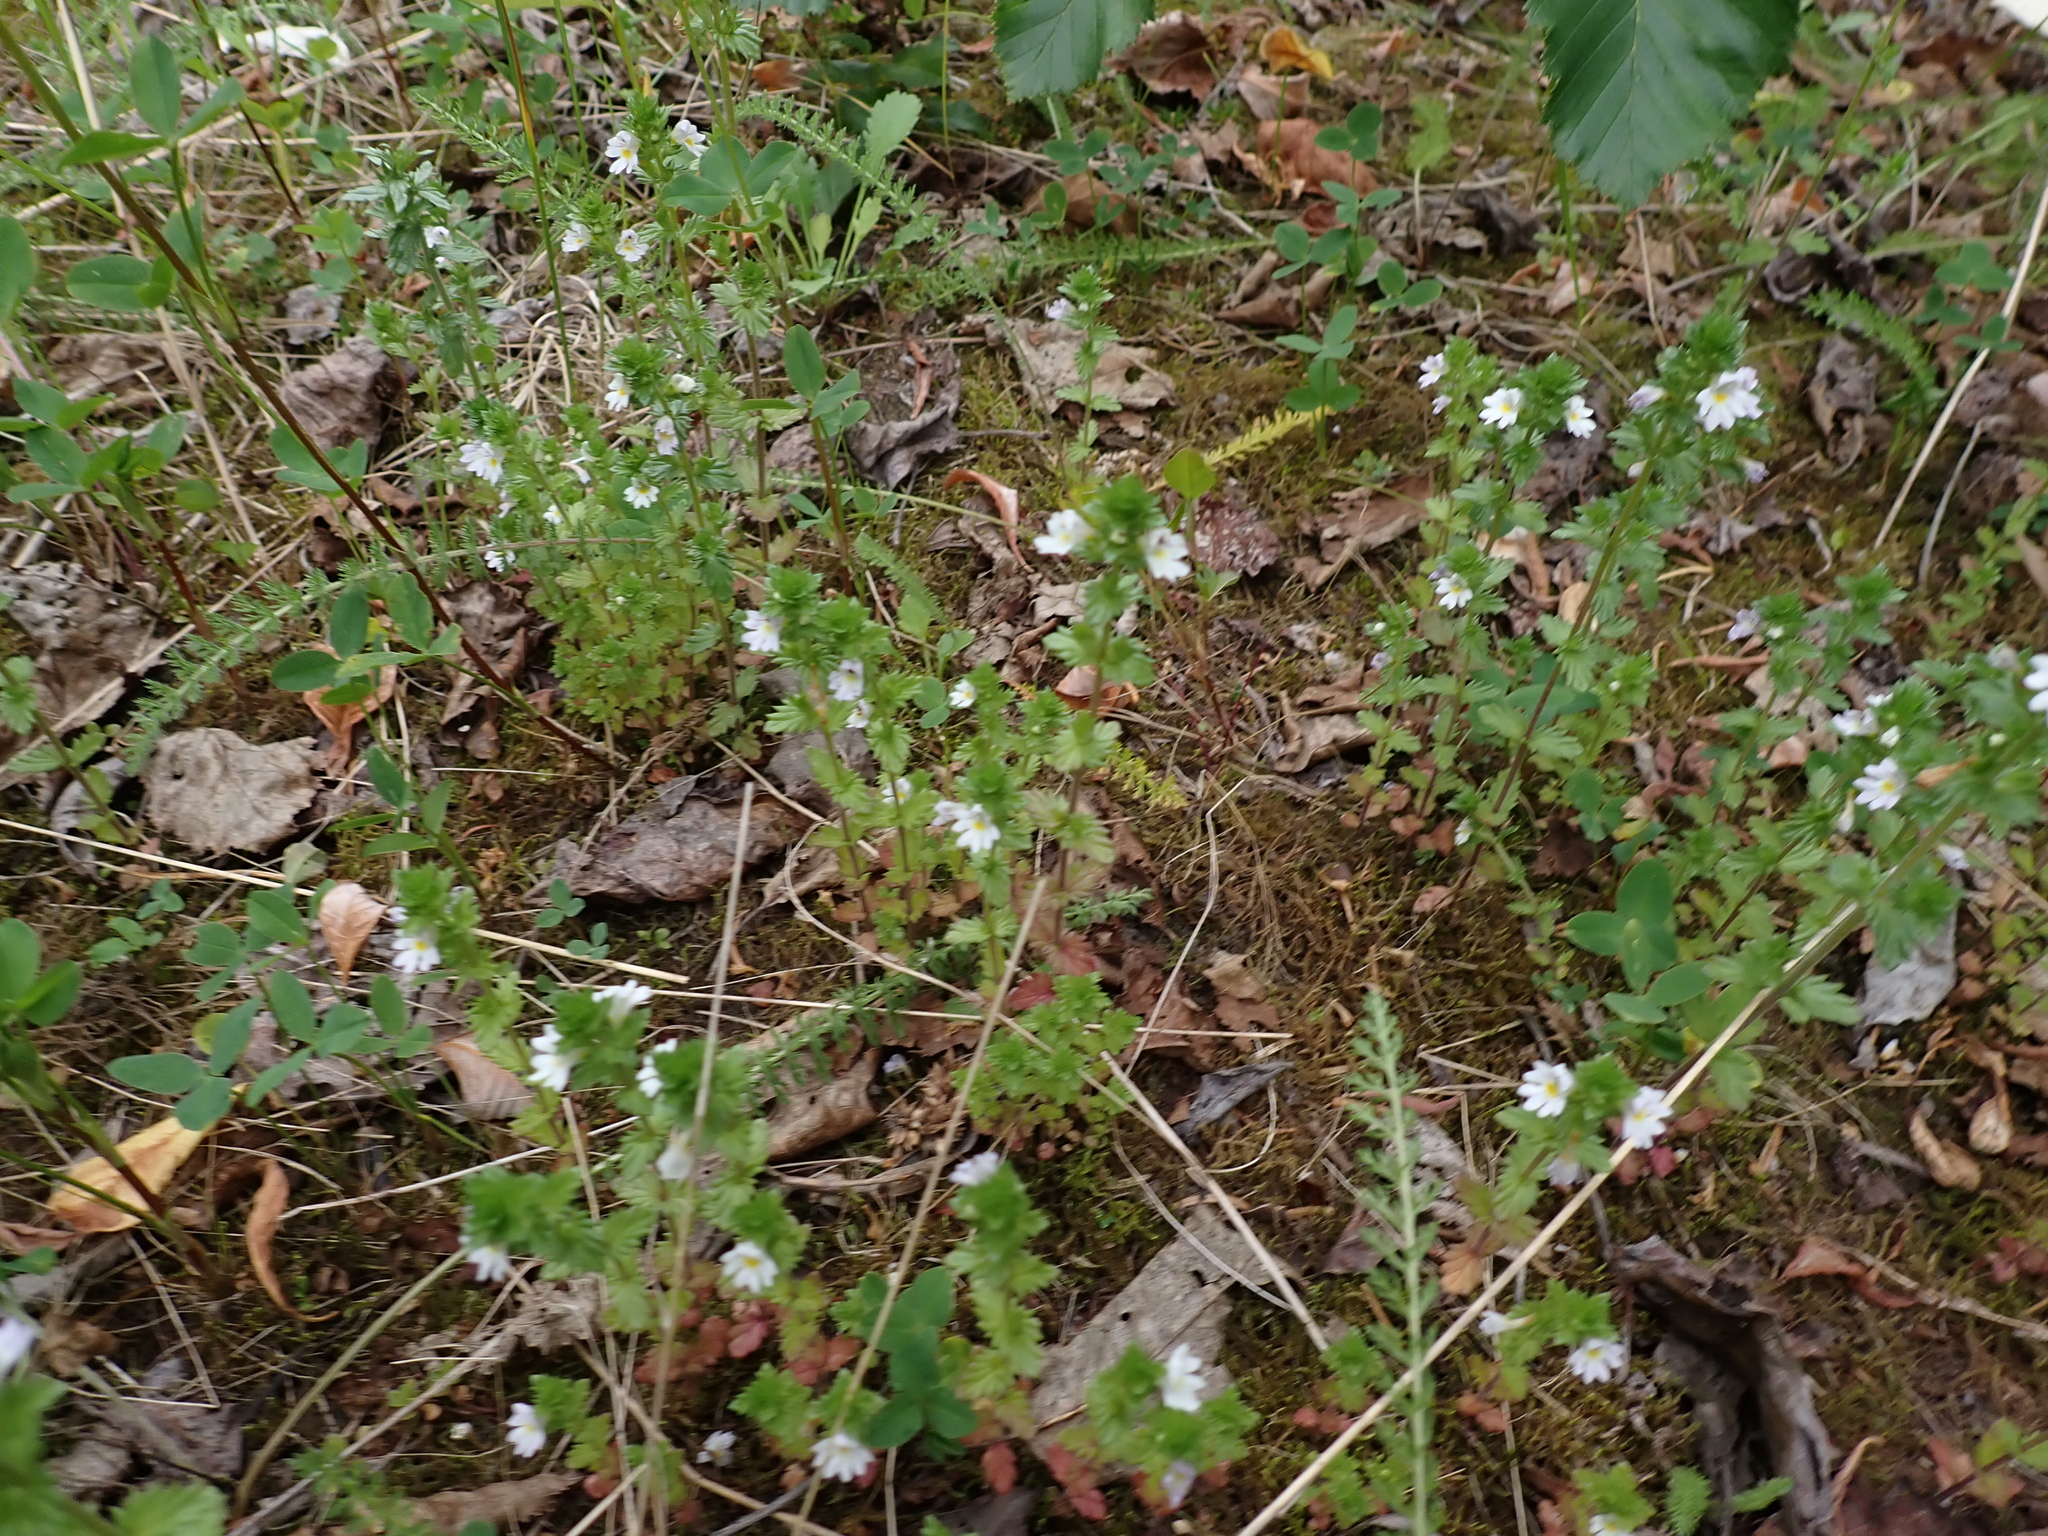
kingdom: Plantae
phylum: Tracheophyta
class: Magnoliopsida
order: Lamiales
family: Orobanchaceae
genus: Euphrasia
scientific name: Euphrasia nemorosa
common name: Common eyebright
